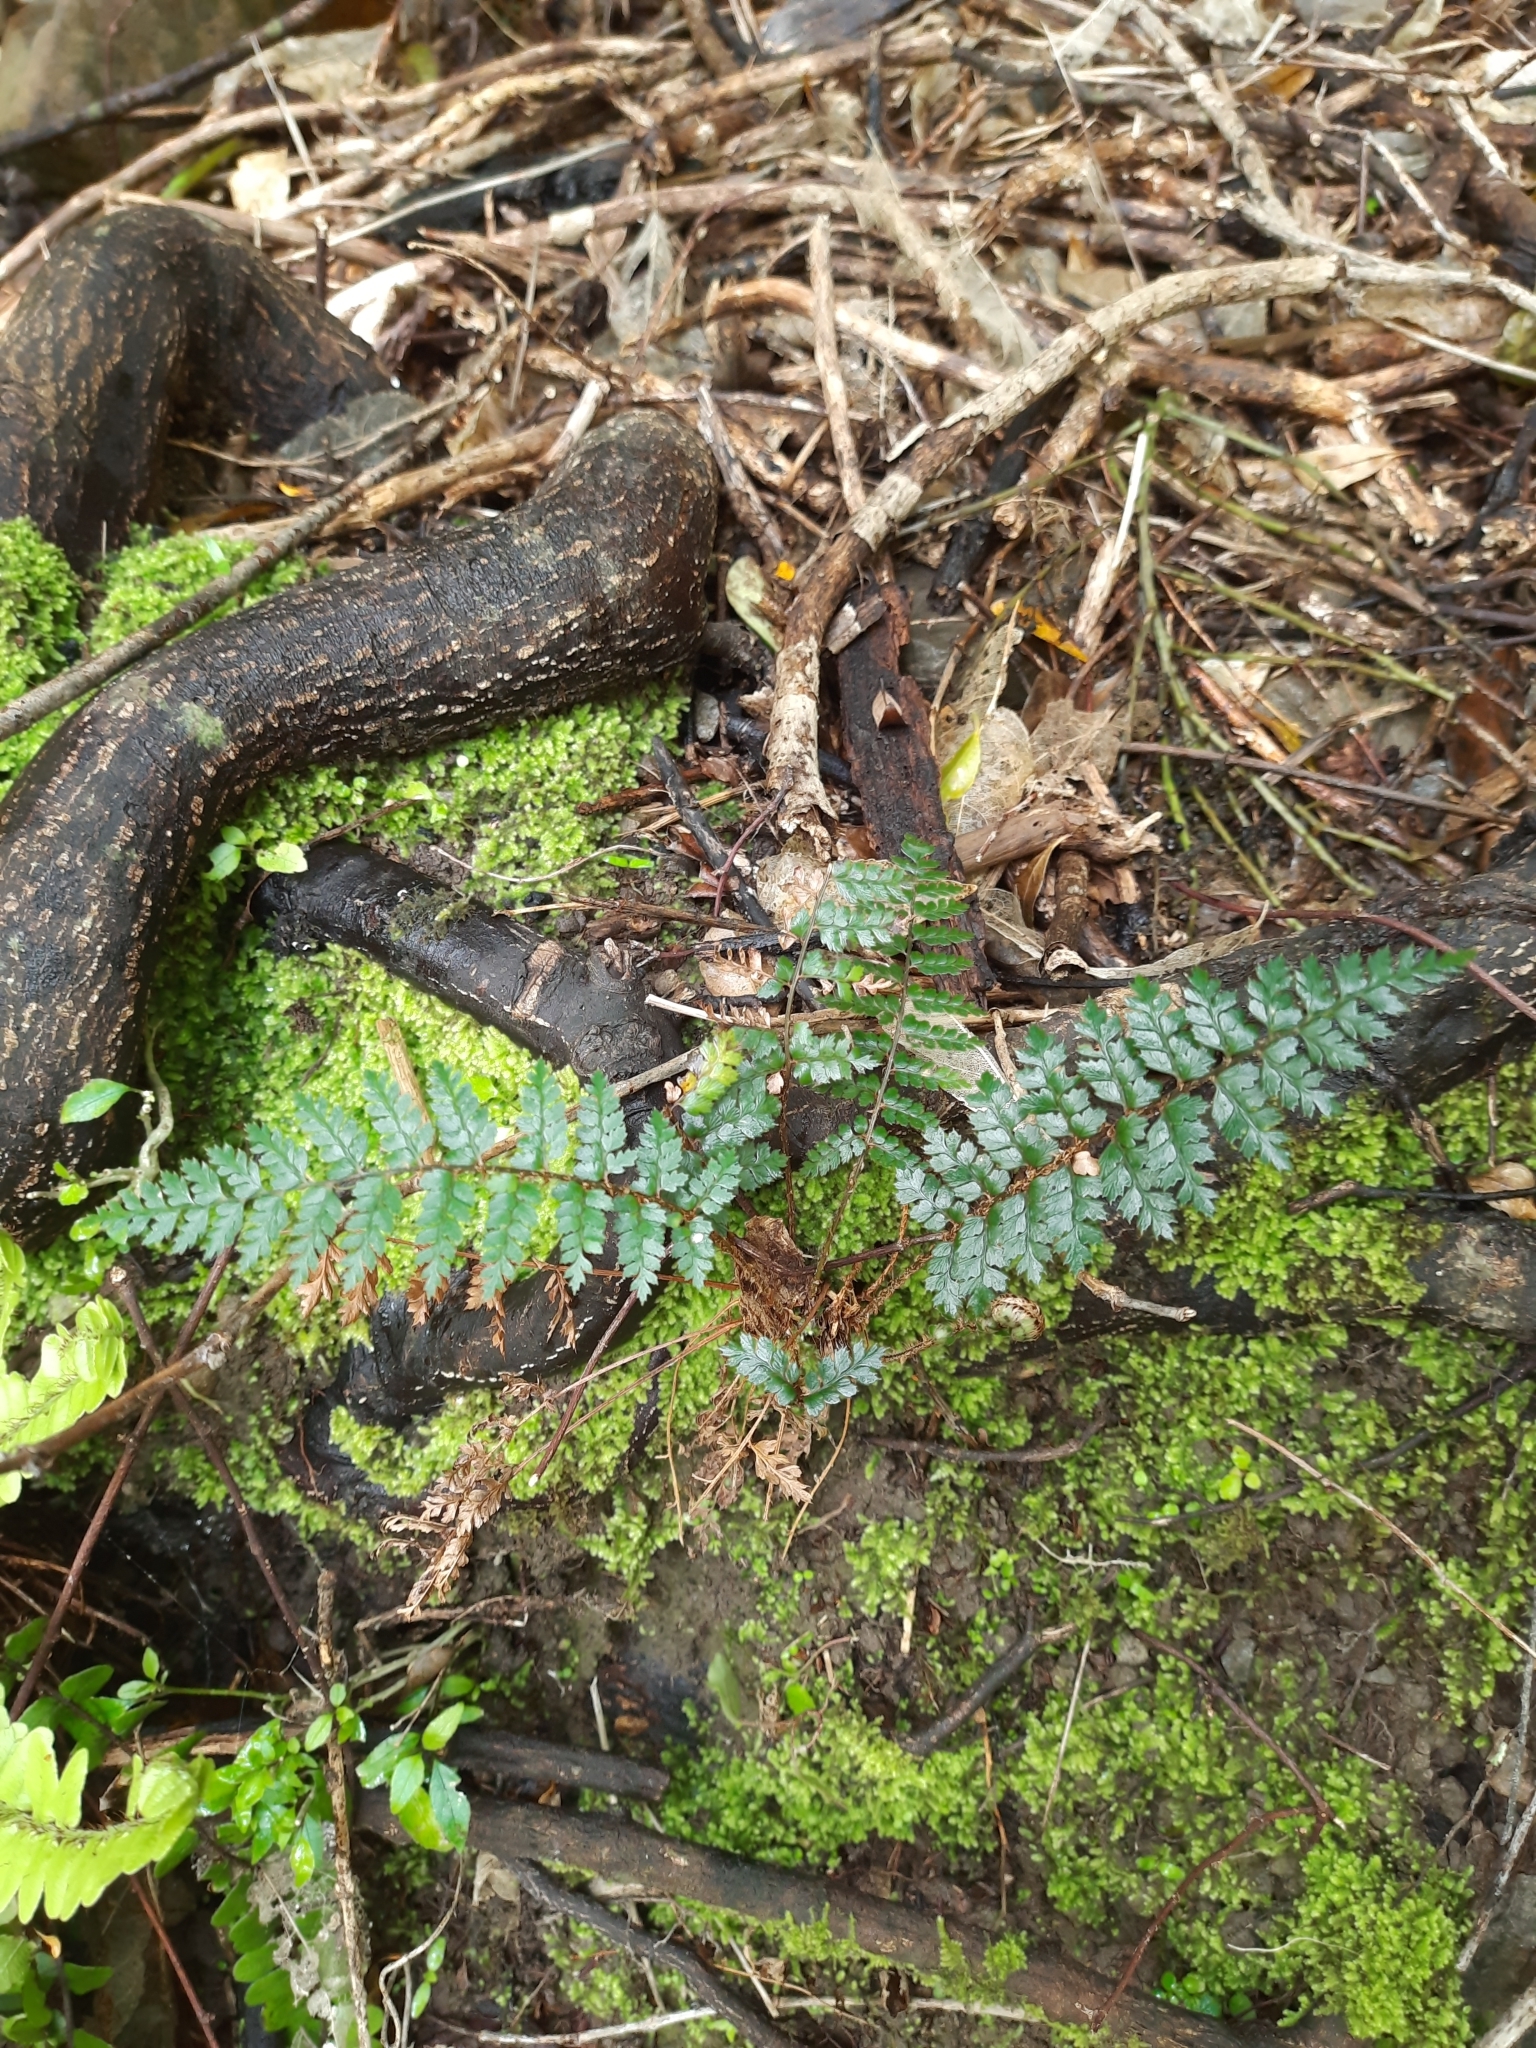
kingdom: Plantae
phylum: Tracheophyta
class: Polypodiopsida
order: Polypodiales
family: Dryopteridaceae
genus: Polystichum
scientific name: Polystichum vestitum
